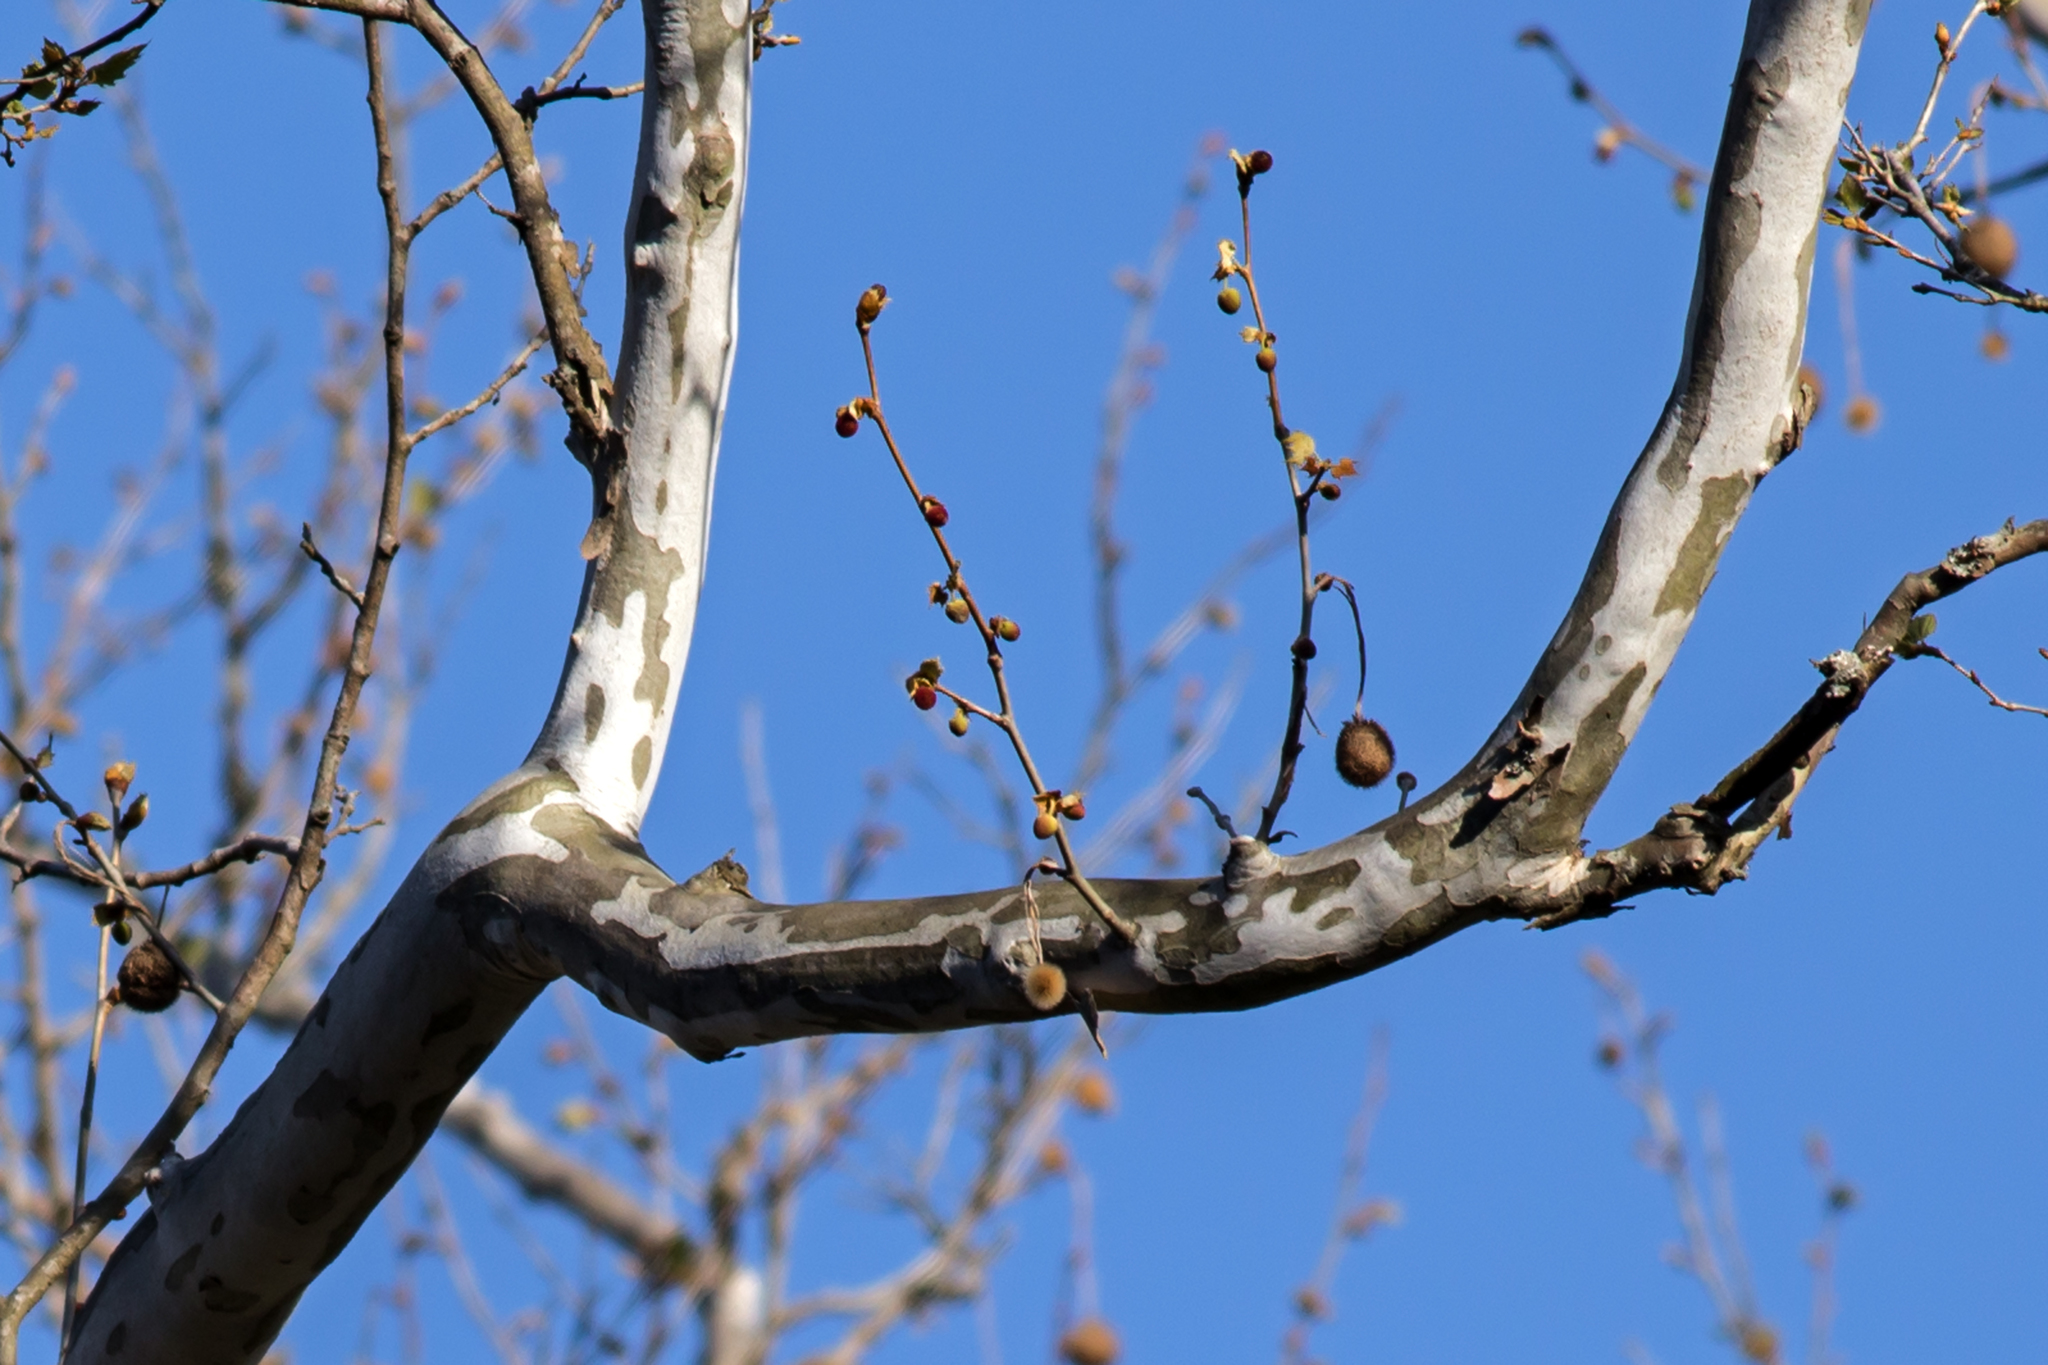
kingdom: Plantae
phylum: Tracheophyta
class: Magnoliopsida
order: Proteales
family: Platanaceae
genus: Platanus
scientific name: Platanus occidentalis
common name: American sycamore
